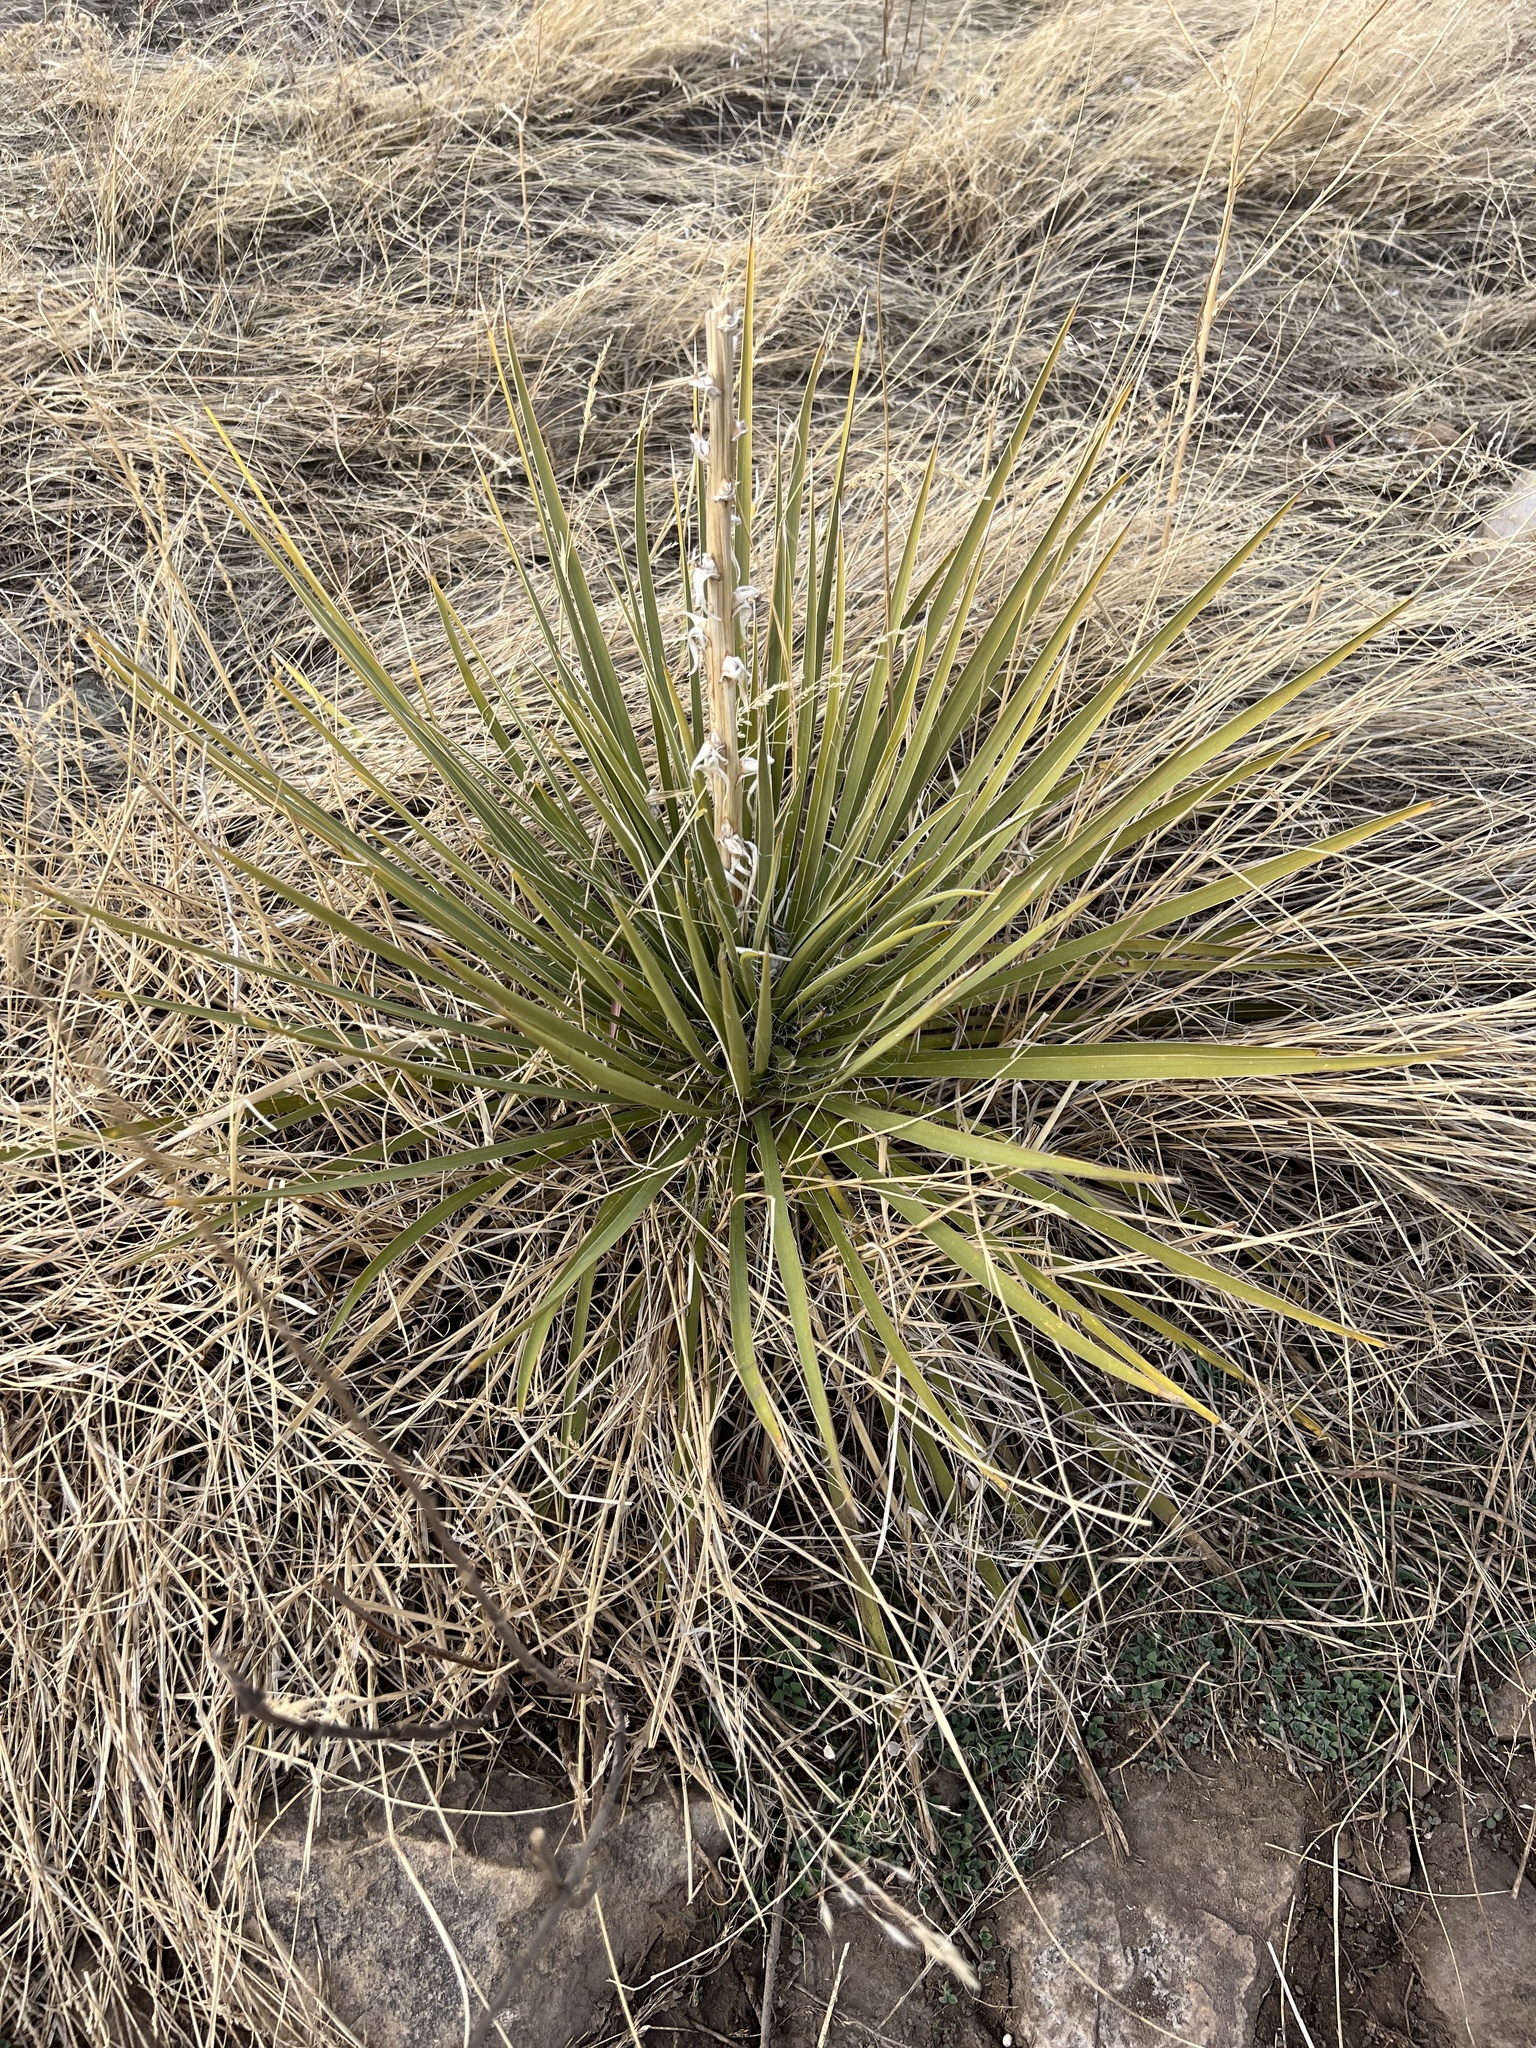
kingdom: Plantae
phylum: Tracheophyta
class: Liliopsida
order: Asparagales
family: Asparagaceae
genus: Yucca
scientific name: Yucca glauca
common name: Great plains yucca
